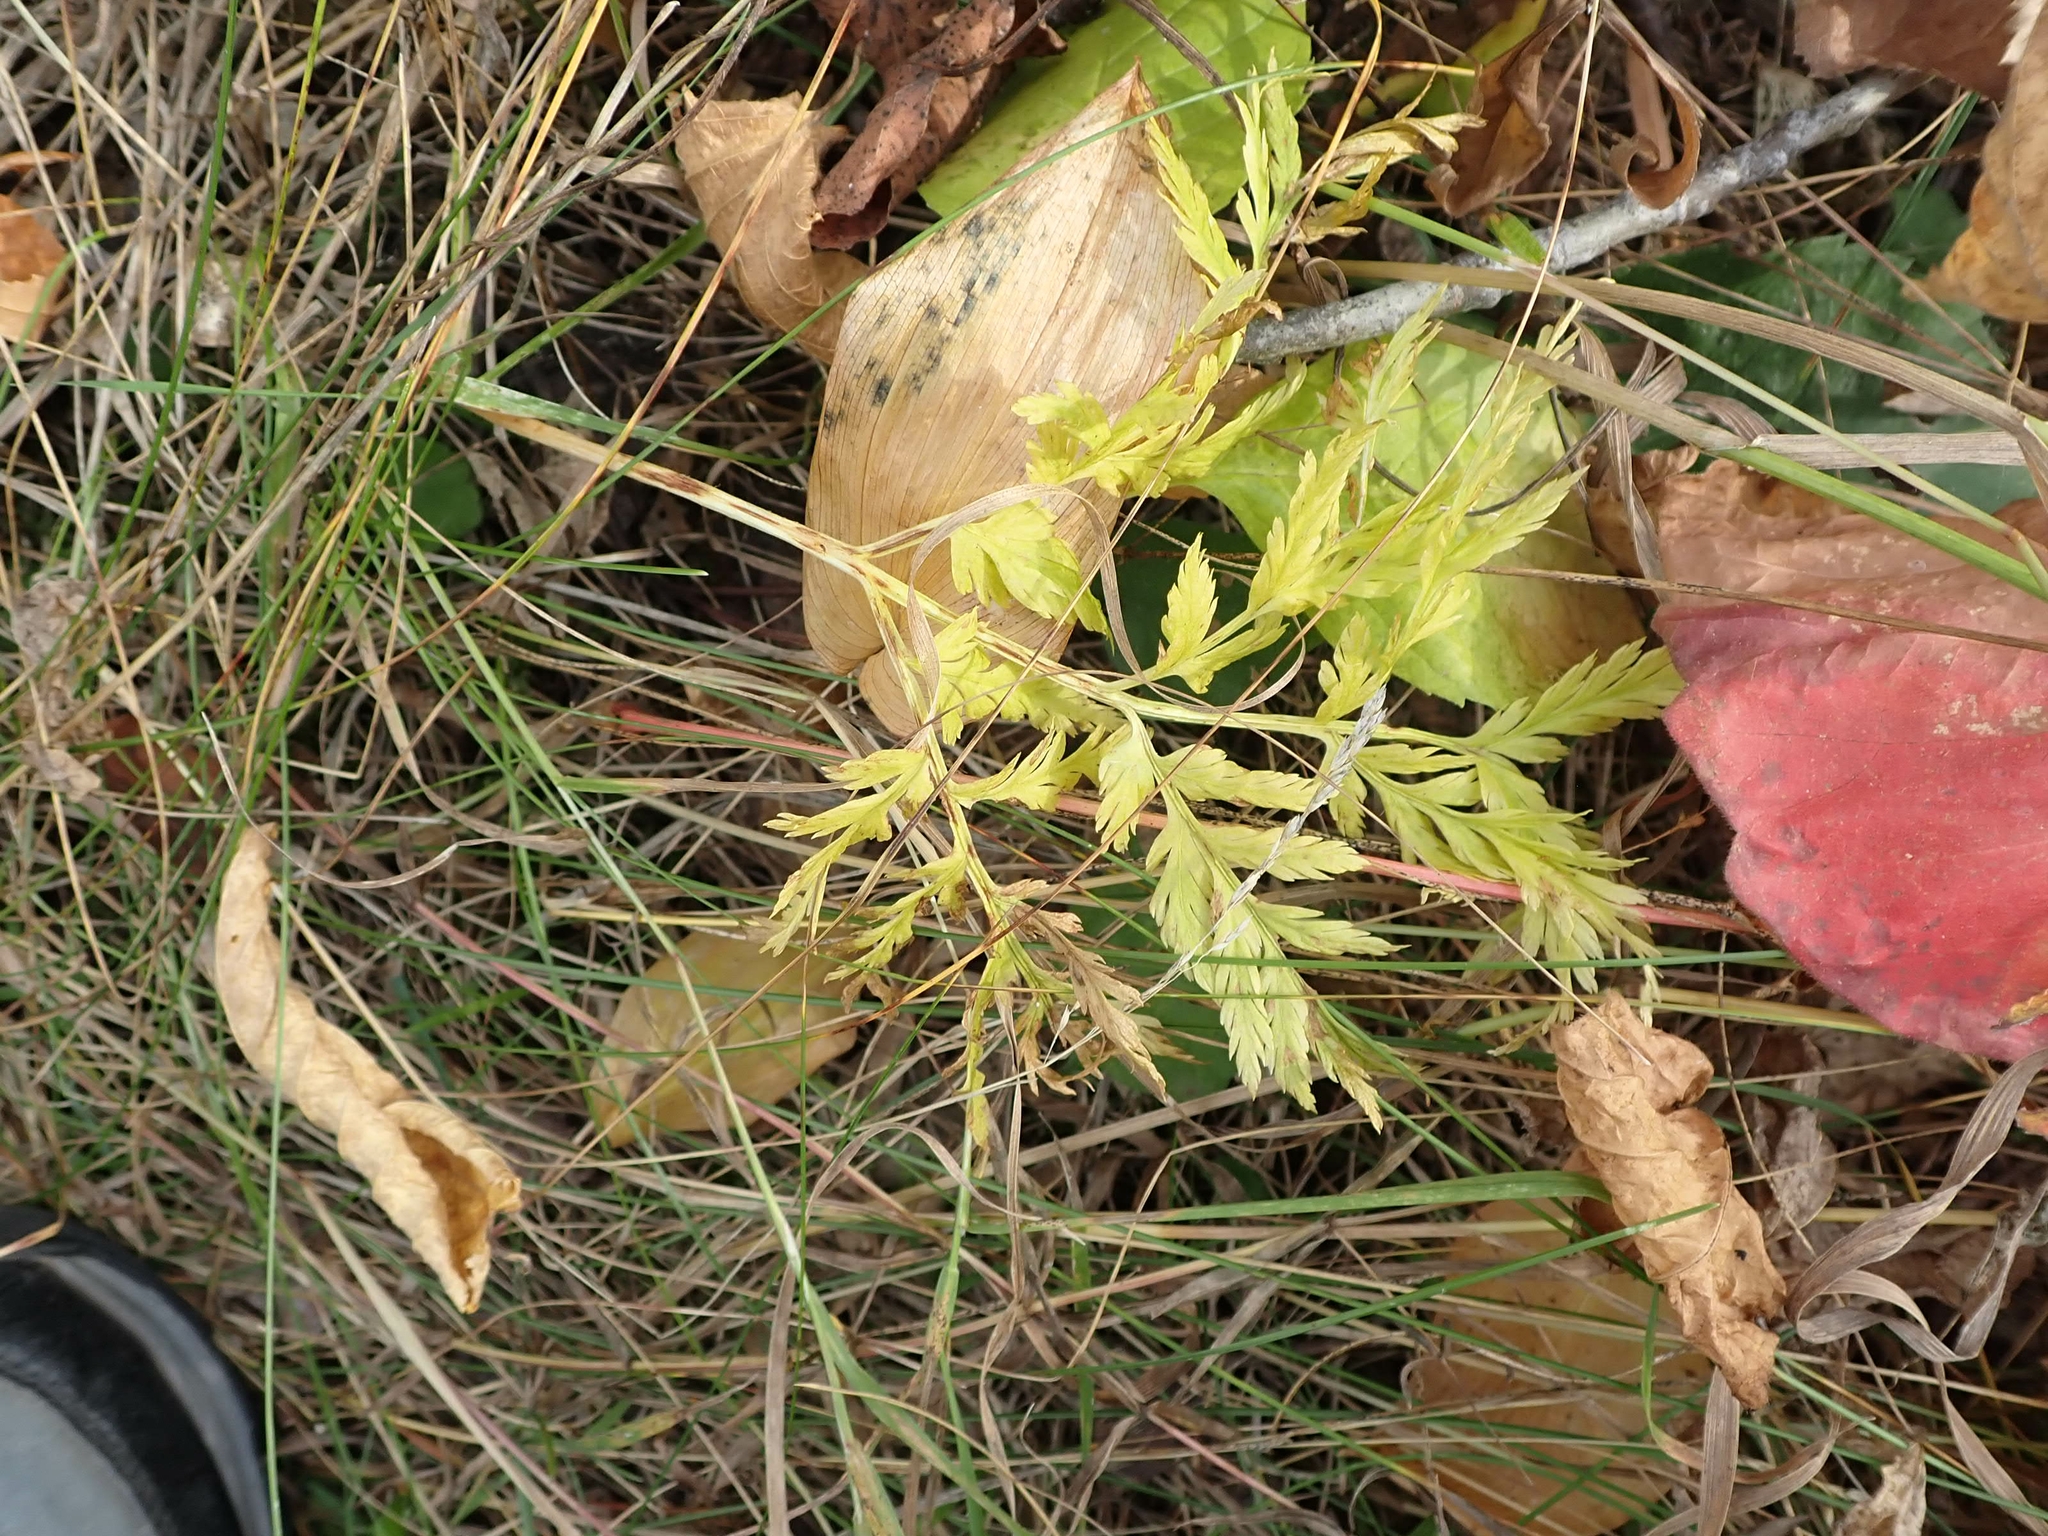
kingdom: Plantae
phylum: Tracheophyta
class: Polypodiopsida
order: Ophioglossales
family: Ophioglossaceae
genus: Botrypus
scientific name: Botrypus virginianus
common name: Common grapefern
